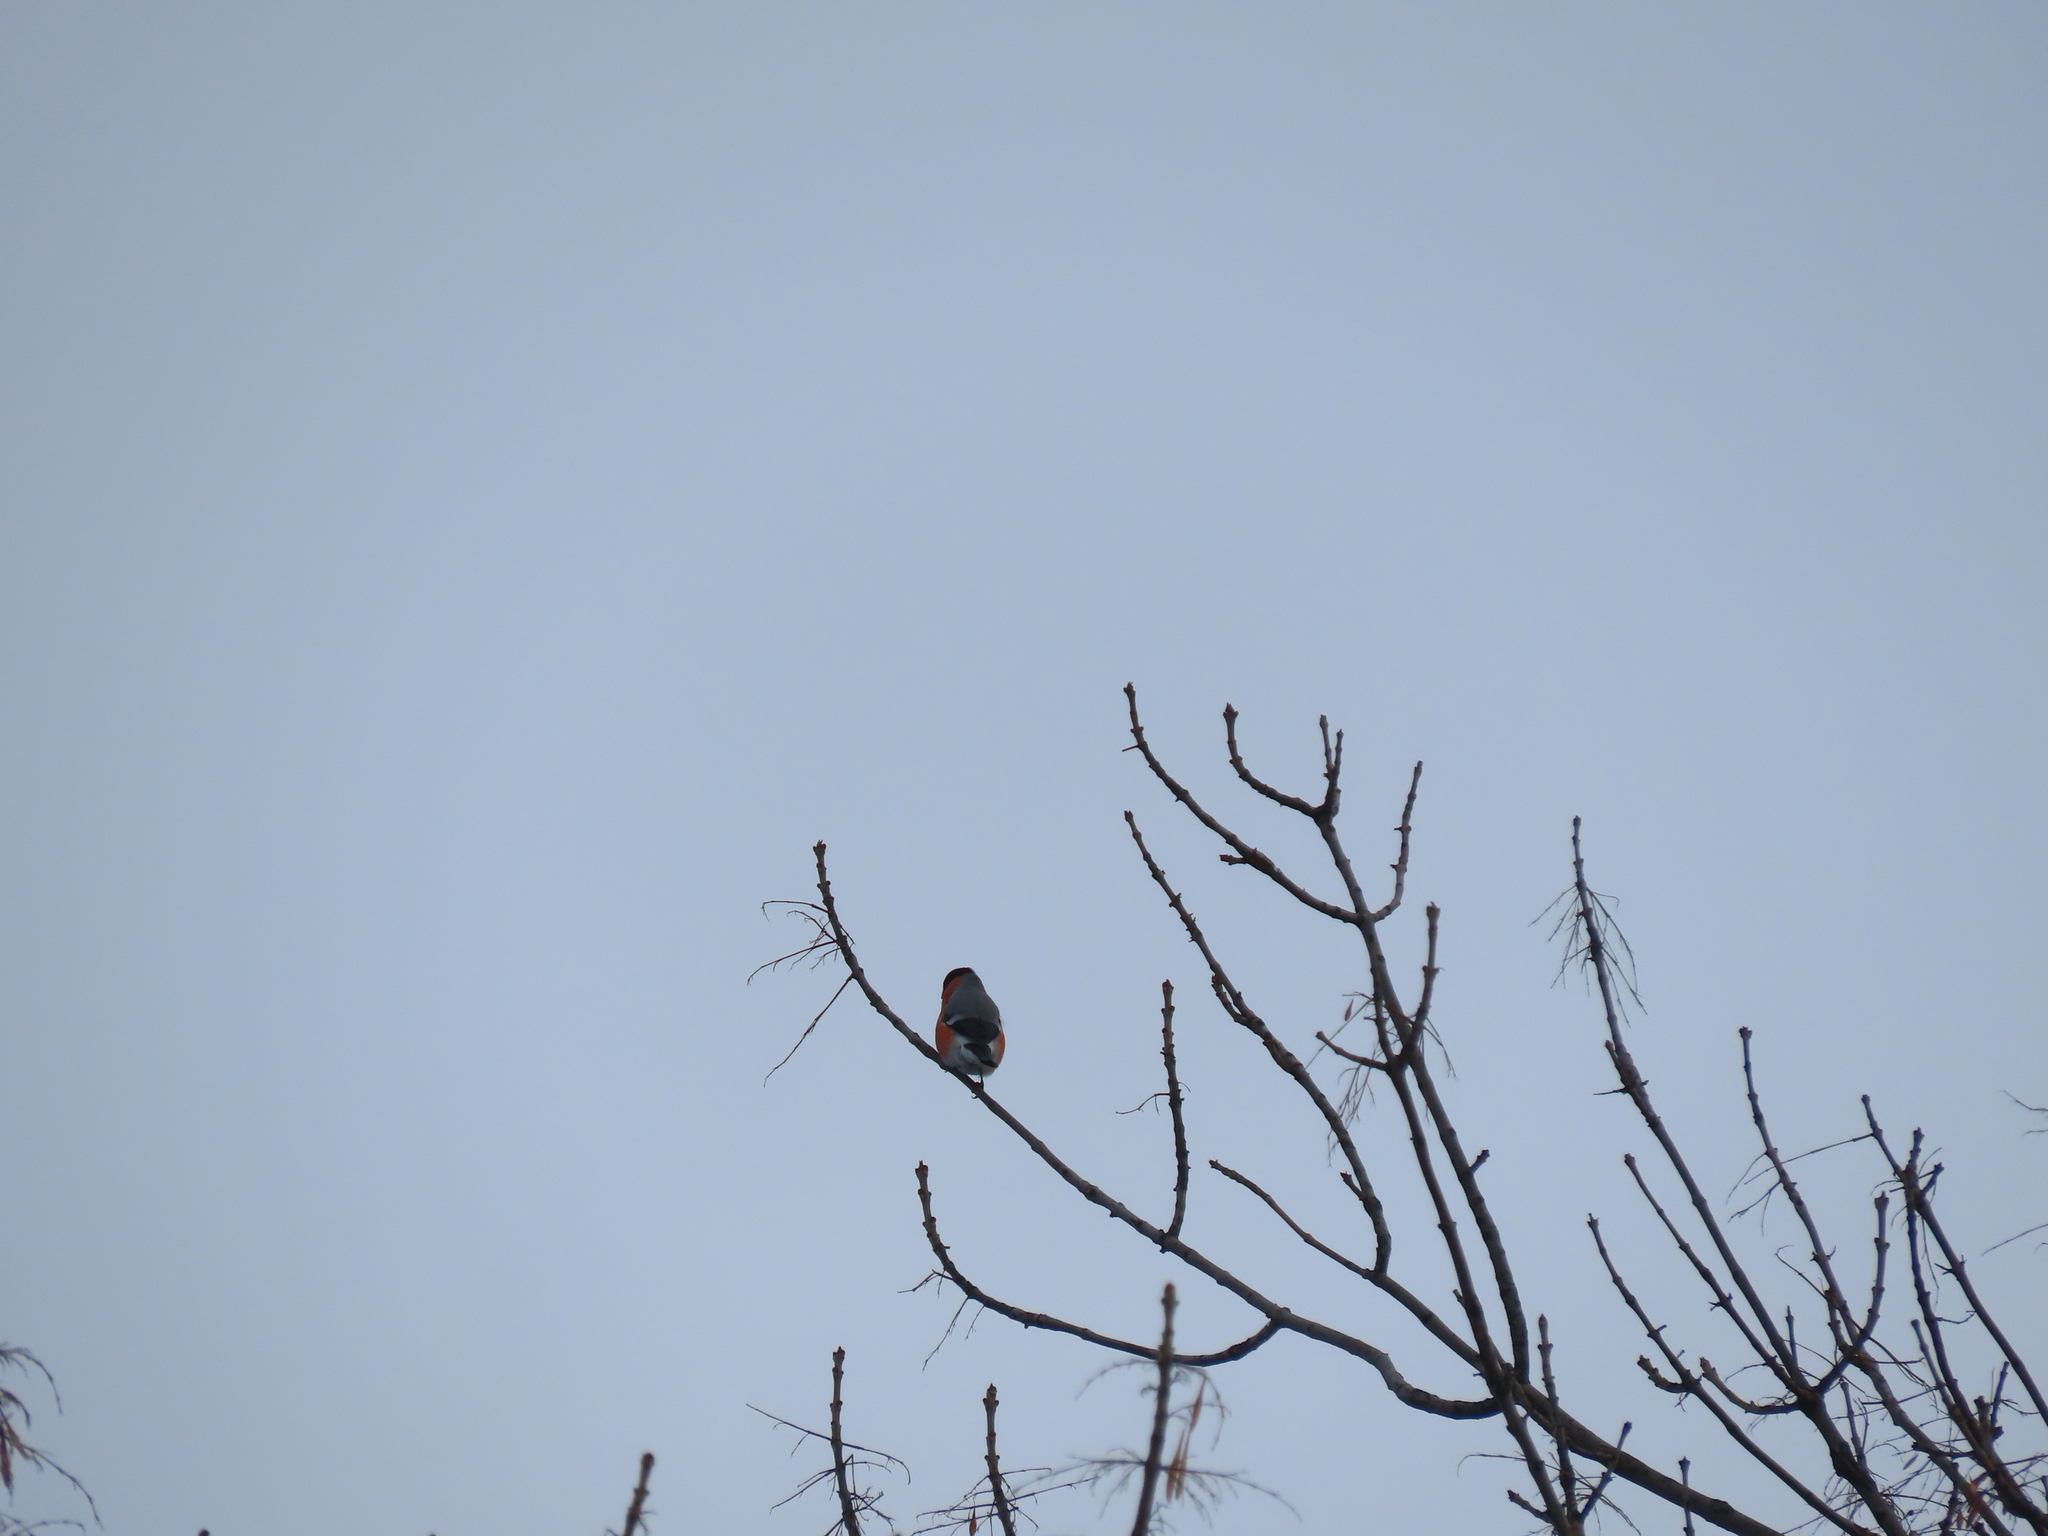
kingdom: Animalia
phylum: Chordata
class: Aves
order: Passeriformes
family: Fringillidae
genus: Pyrrhula
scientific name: Pyrrhula pyrrhula
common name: Eurasian bullfinch
